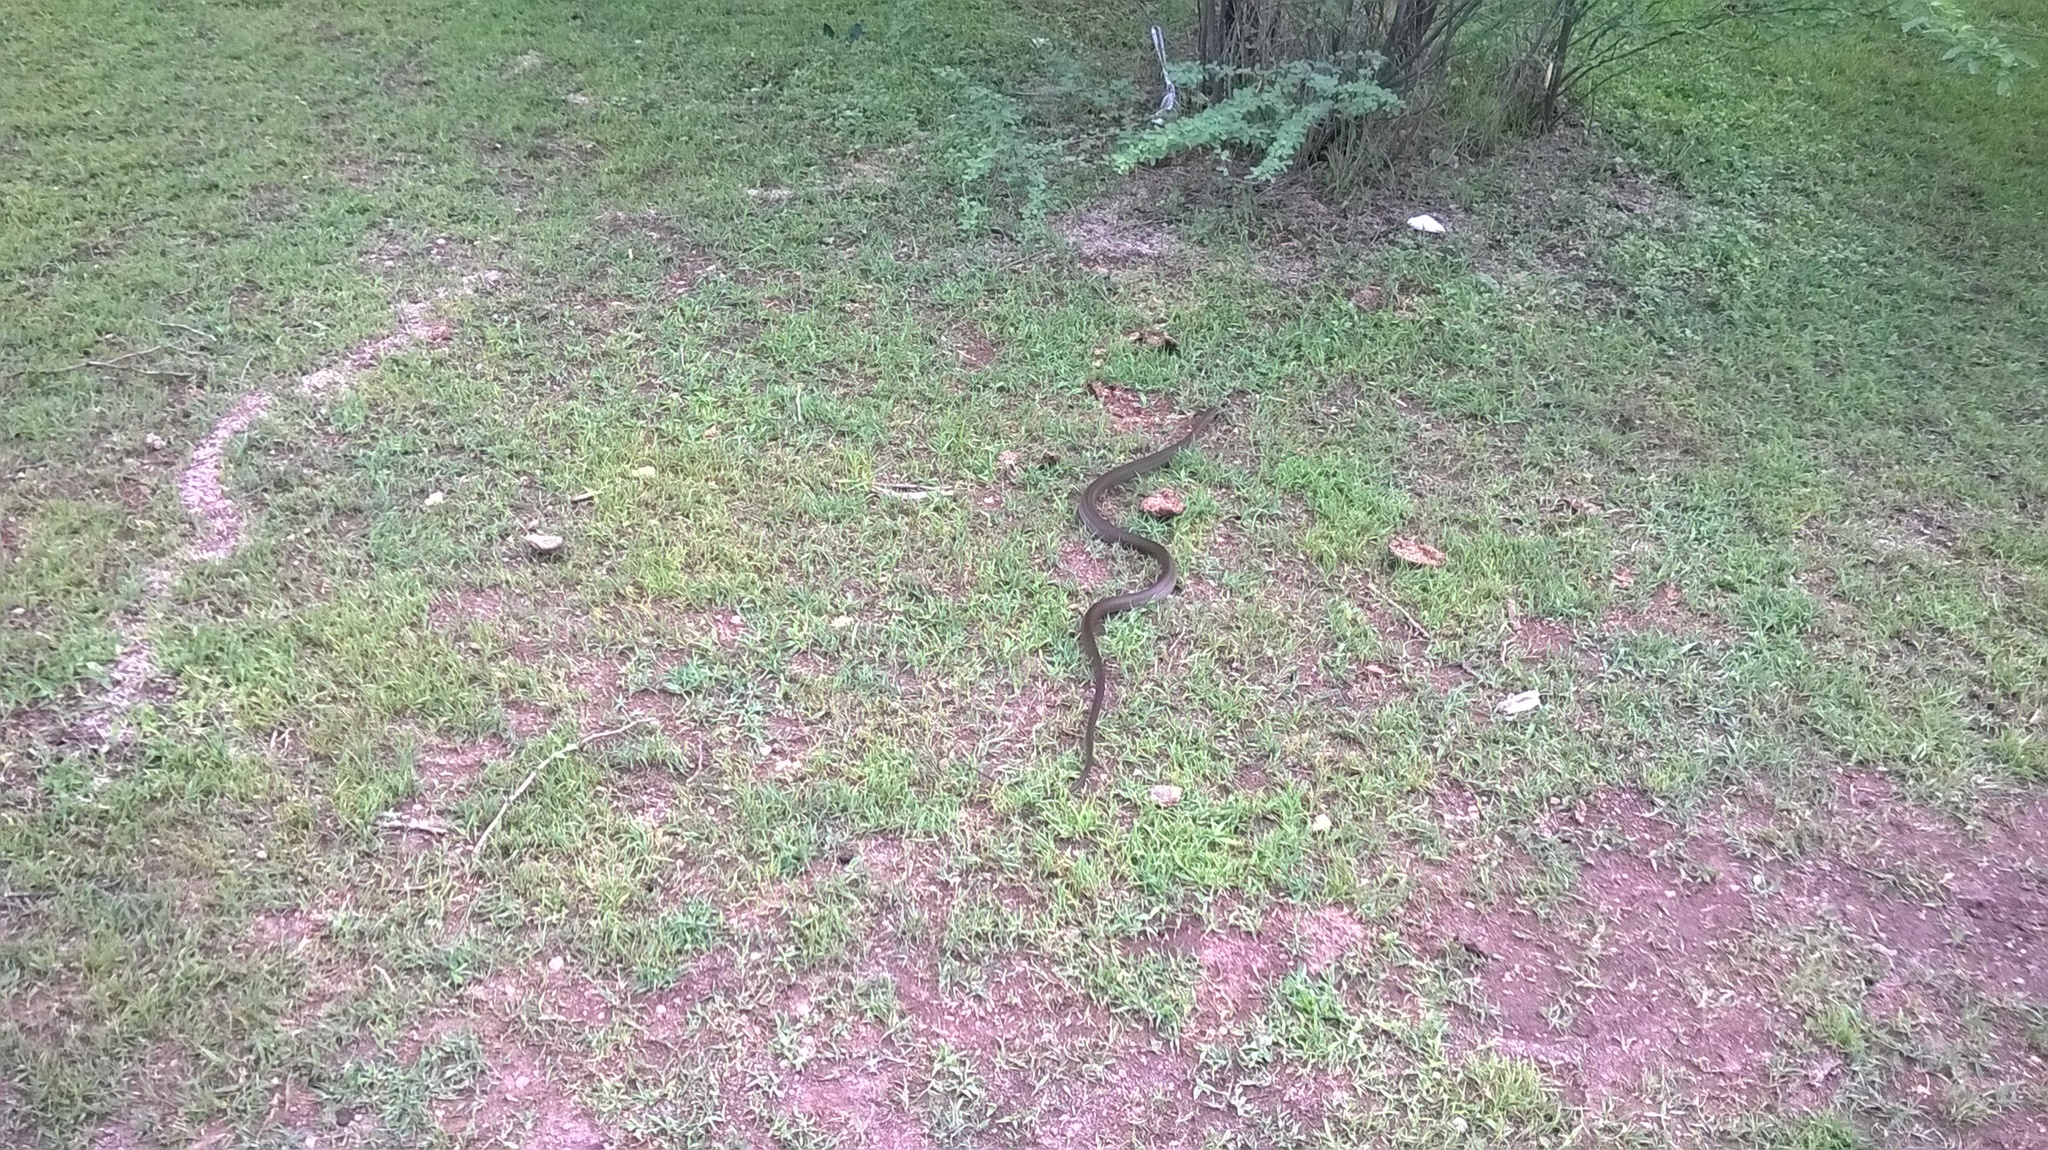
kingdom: Animalia
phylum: Chordata
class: Squamata
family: Colubridae
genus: Ptyas
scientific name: Ptyas mucosa
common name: Oriental ratsnake
